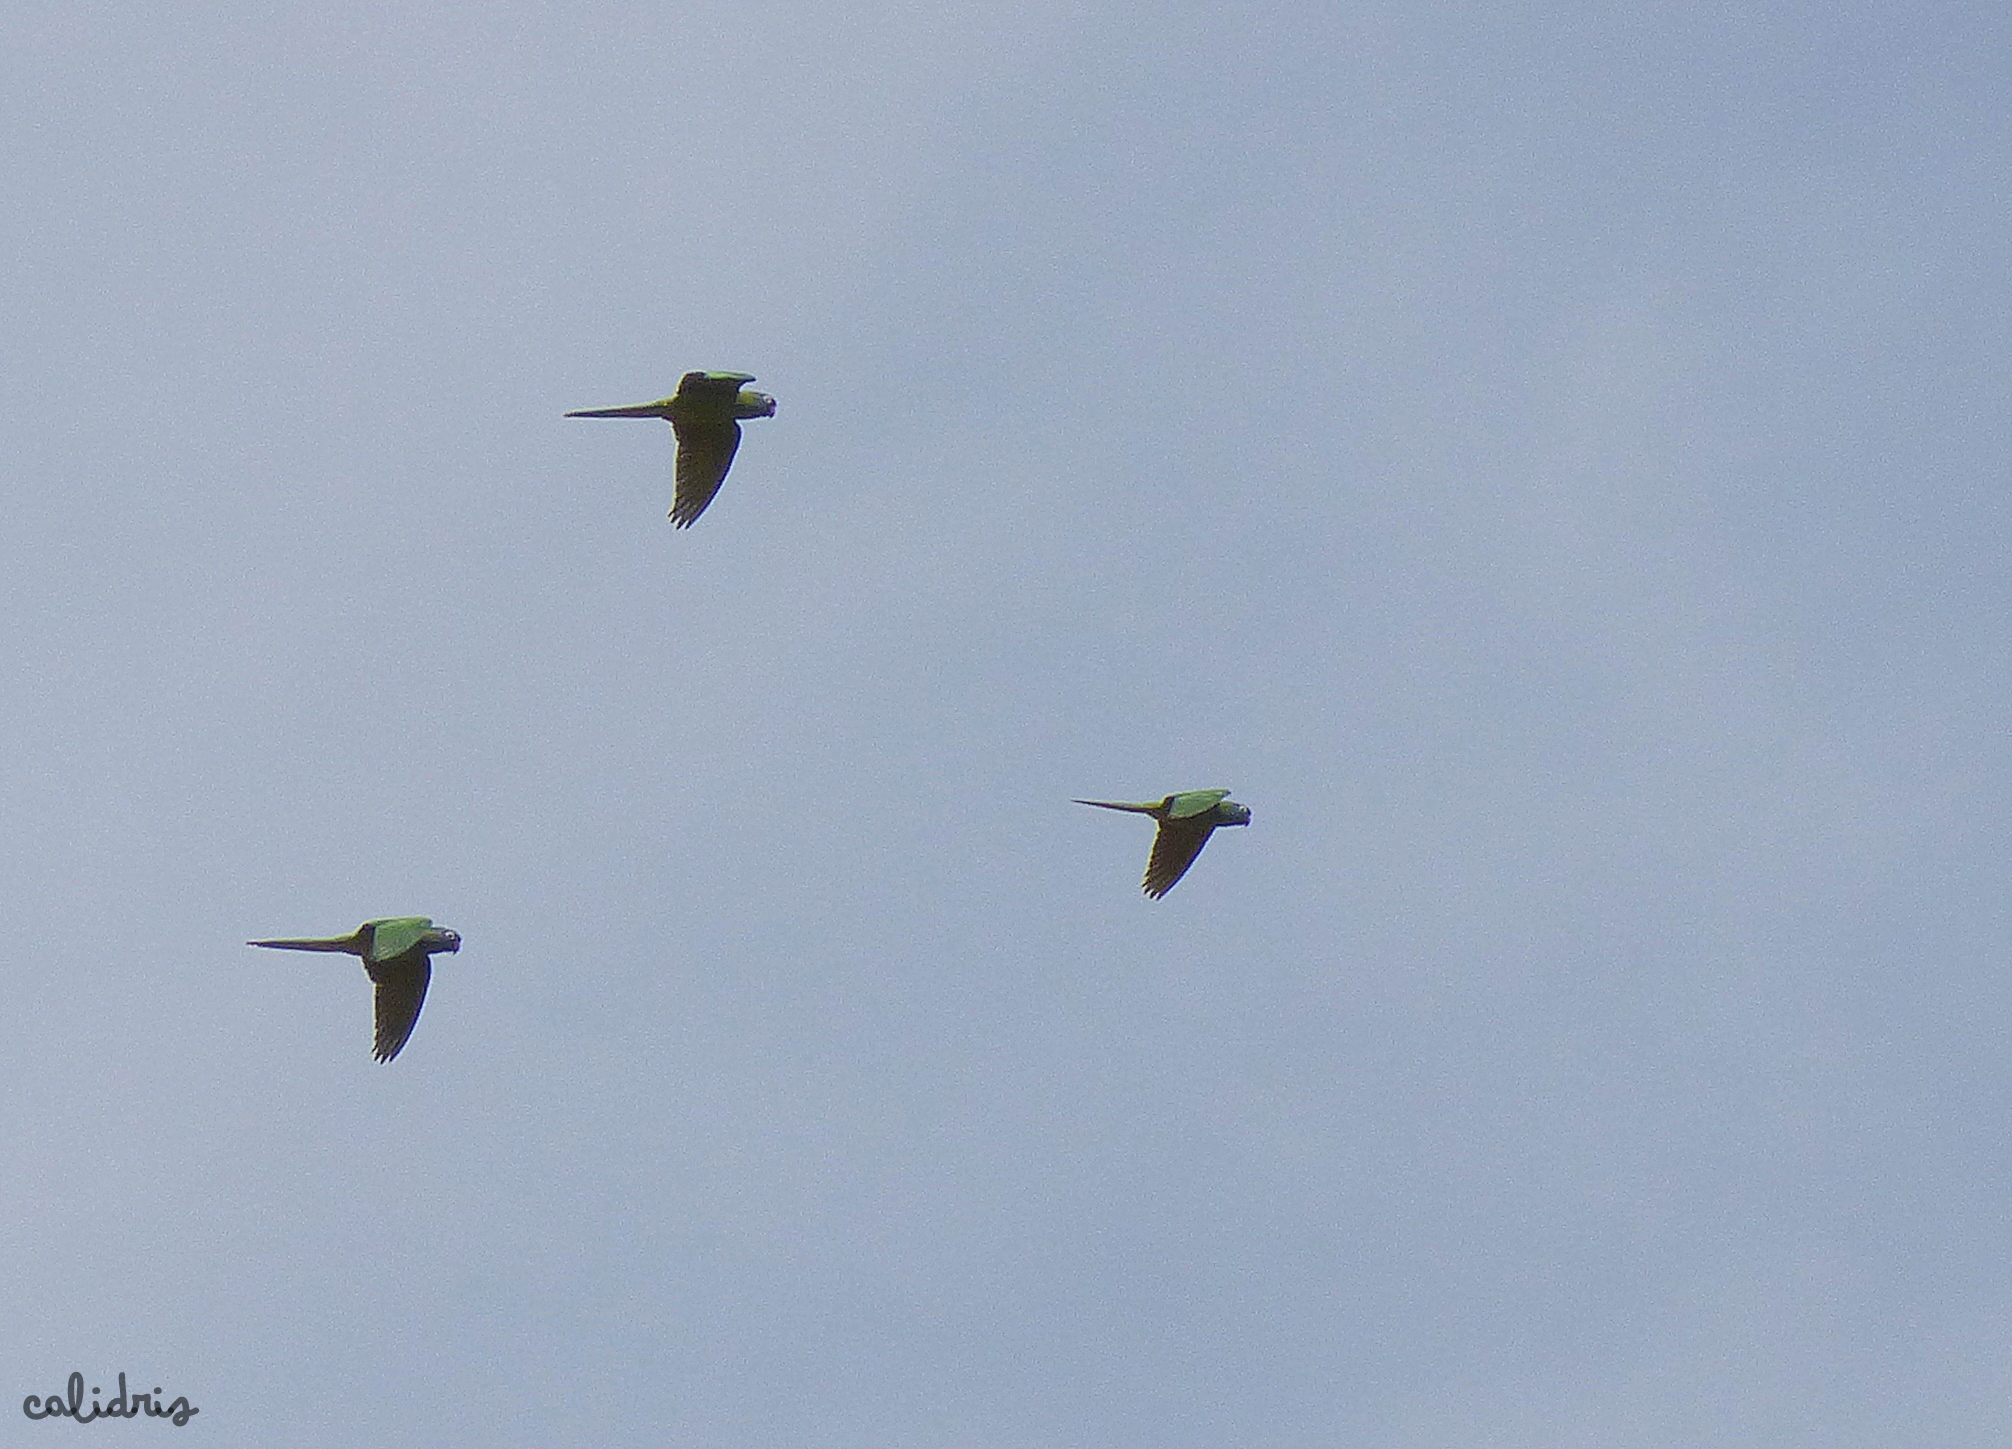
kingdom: Animalia
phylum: Chordata
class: Aves
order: Psittaciformes
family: Psittacidae
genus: Aratinga
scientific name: Aratinga acuticaudata
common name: Blue-crowned parakeet
